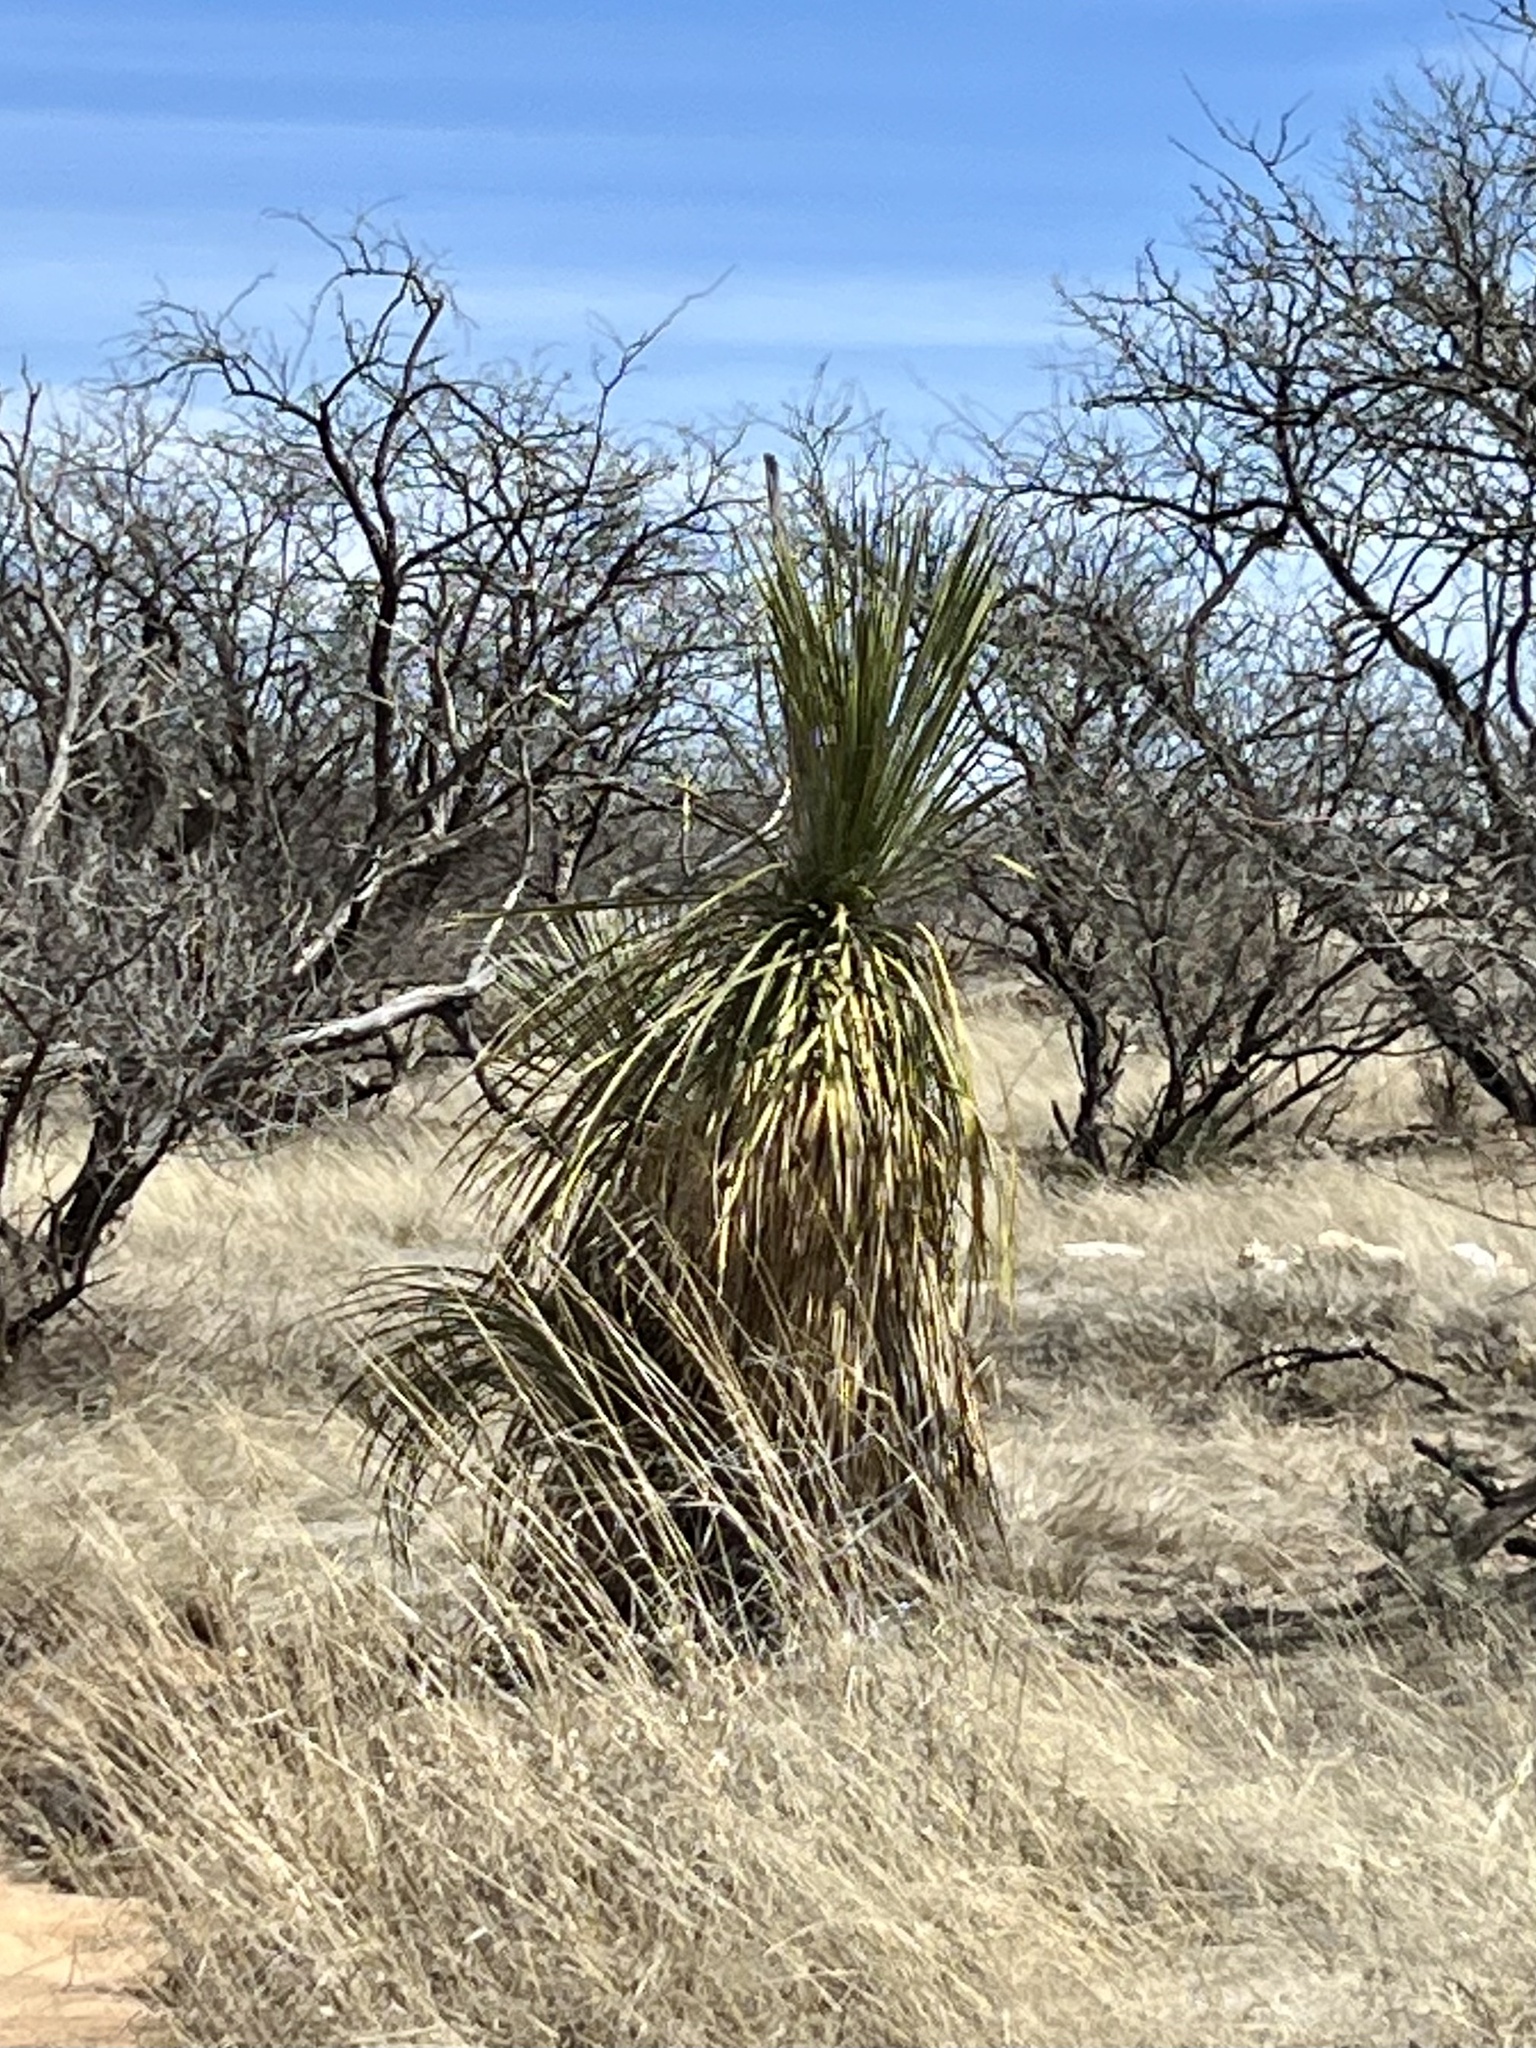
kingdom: Plantae
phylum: Tracheophyta
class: Liliopsida
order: Asparagales
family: Asparagaceae
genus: Yucca
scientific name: Yucca elata
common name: Palmella
